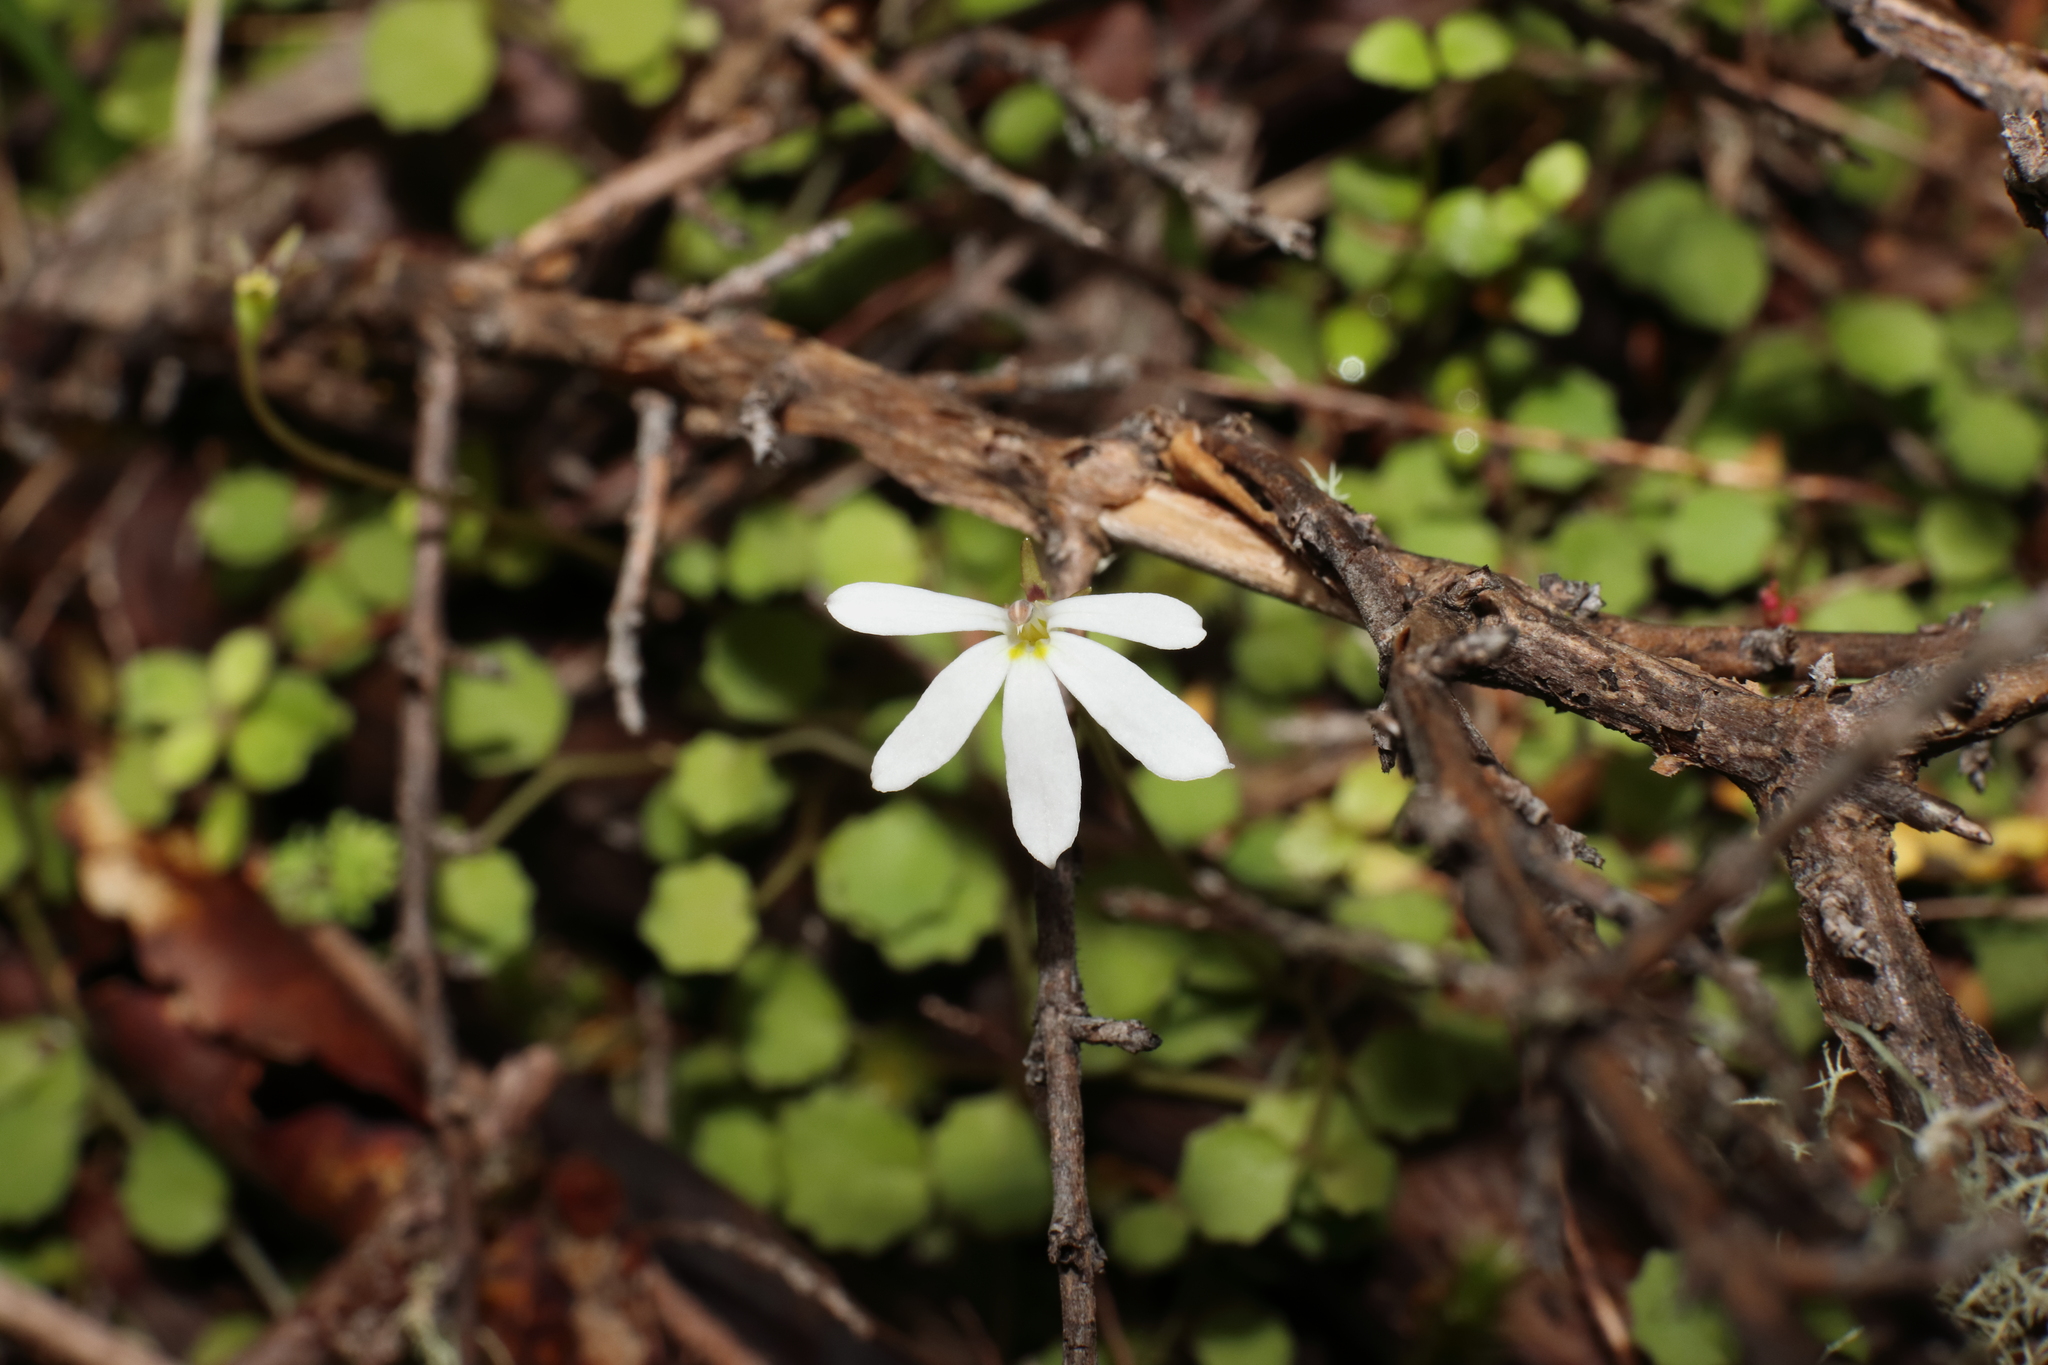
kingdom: Plantae
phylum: Tracheophyta
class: Magnoliopsida
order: Asterales
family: Campanulaceae
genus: Lobelia
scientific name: Lobelia angulata
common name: Lawn lobelia
